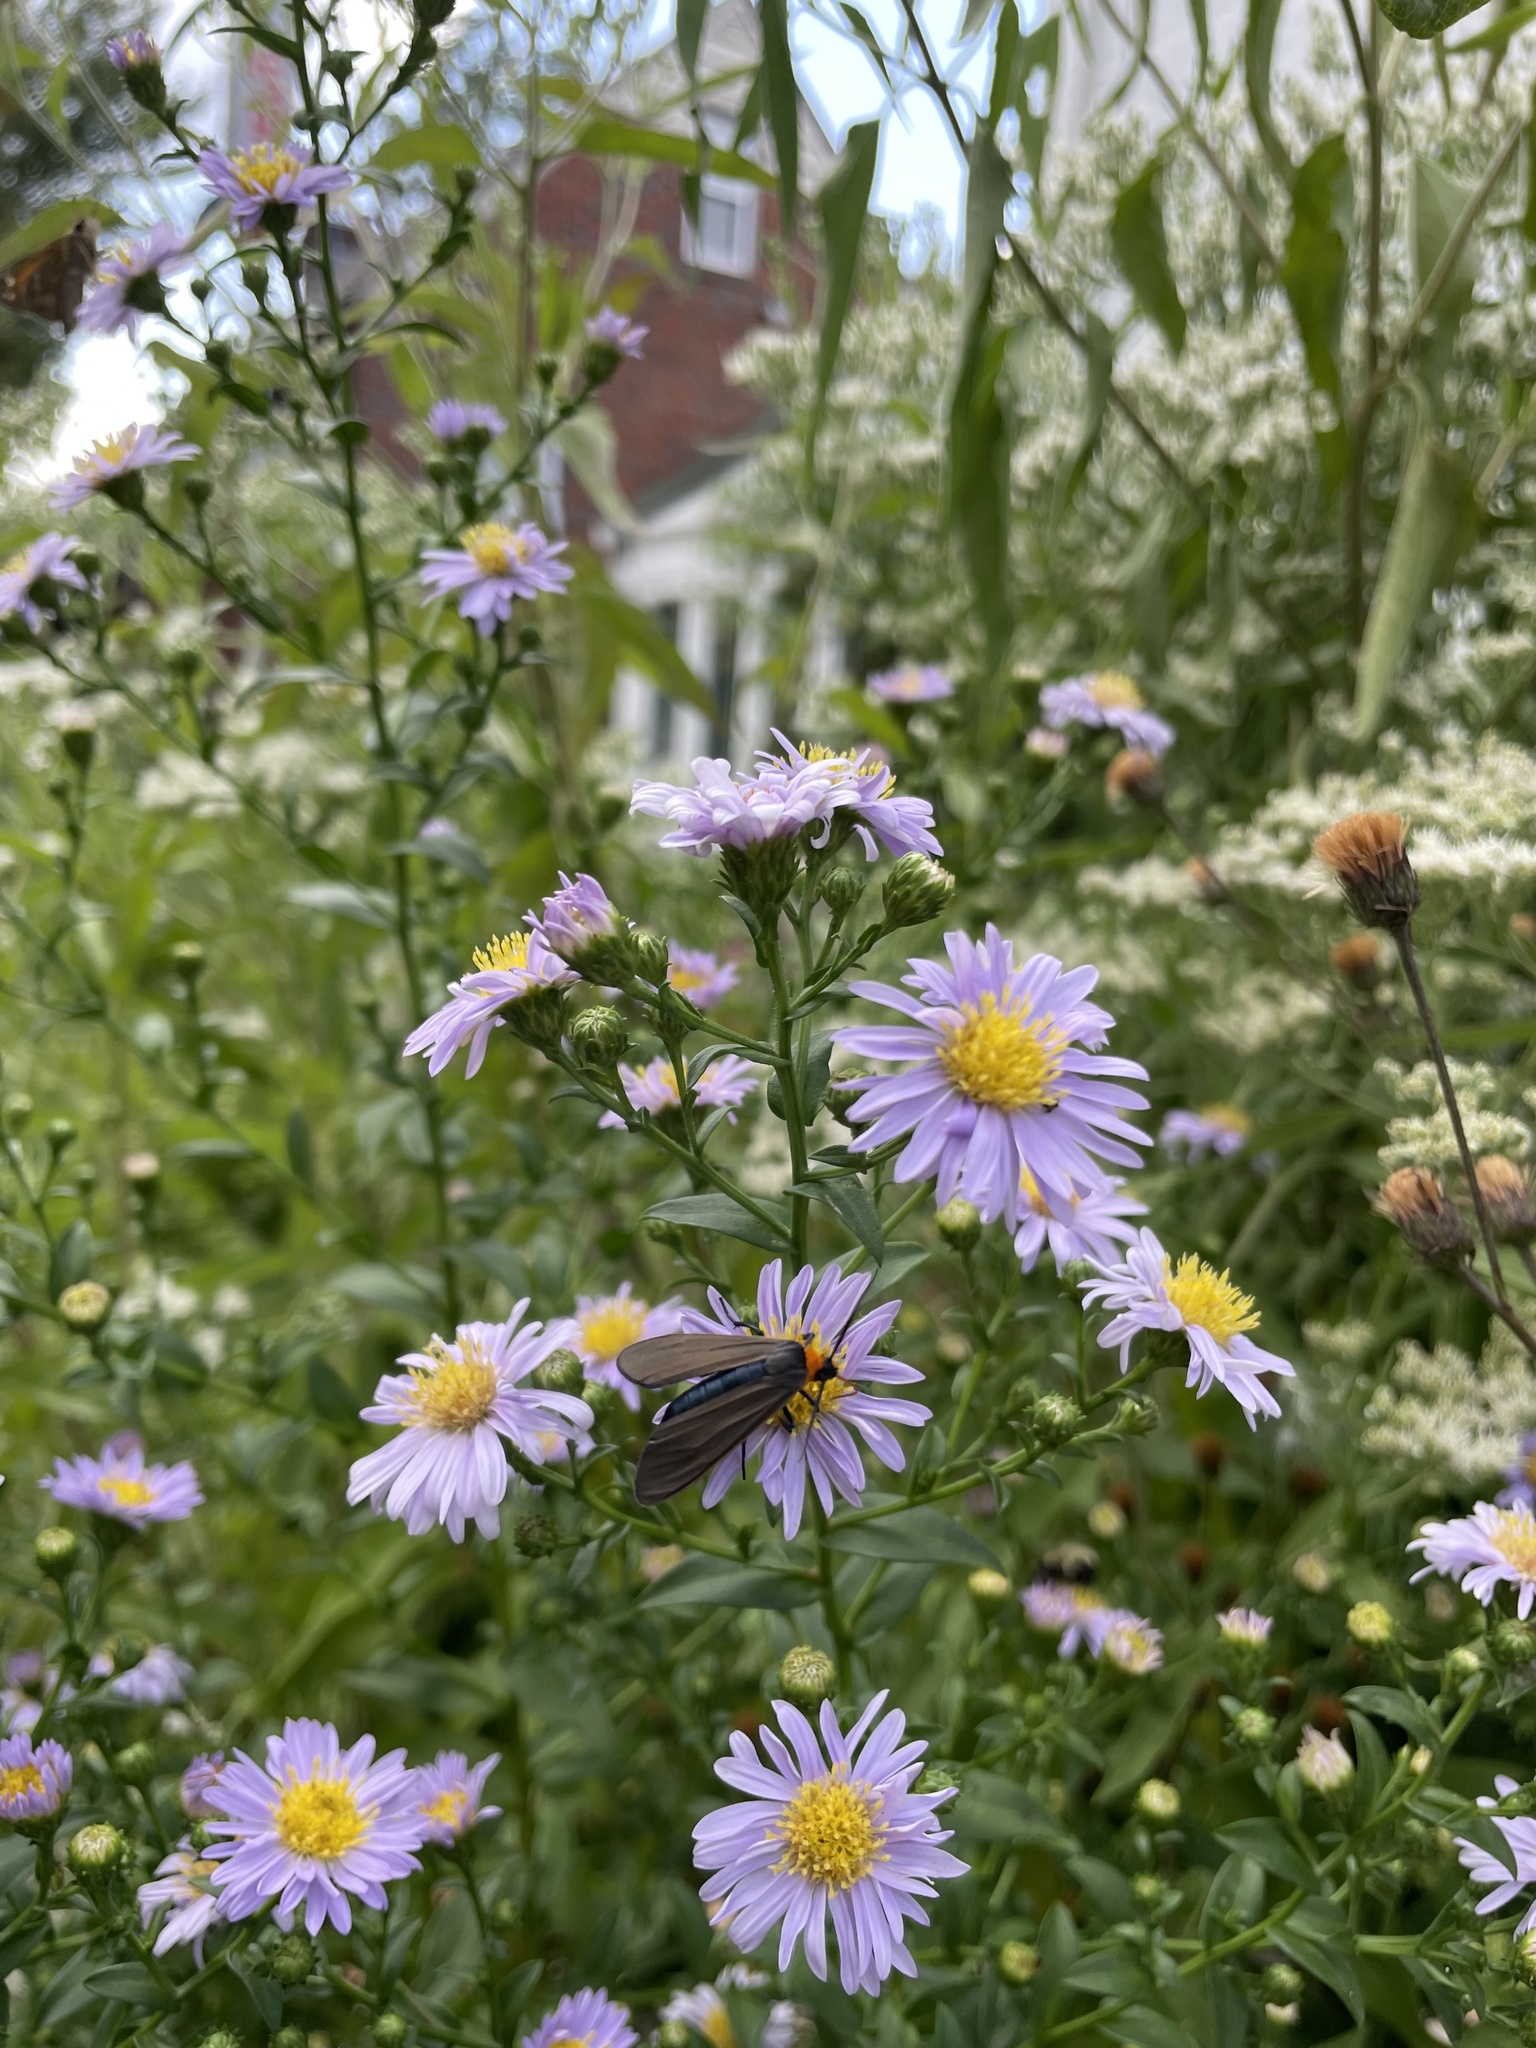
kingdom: Animalia
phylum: Arthropoda
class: Insecta
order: Lepidoptera
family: Erebidae
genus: Cisseps
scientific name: Cisseps fulvicollis
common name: Yellow-collared scape moth
